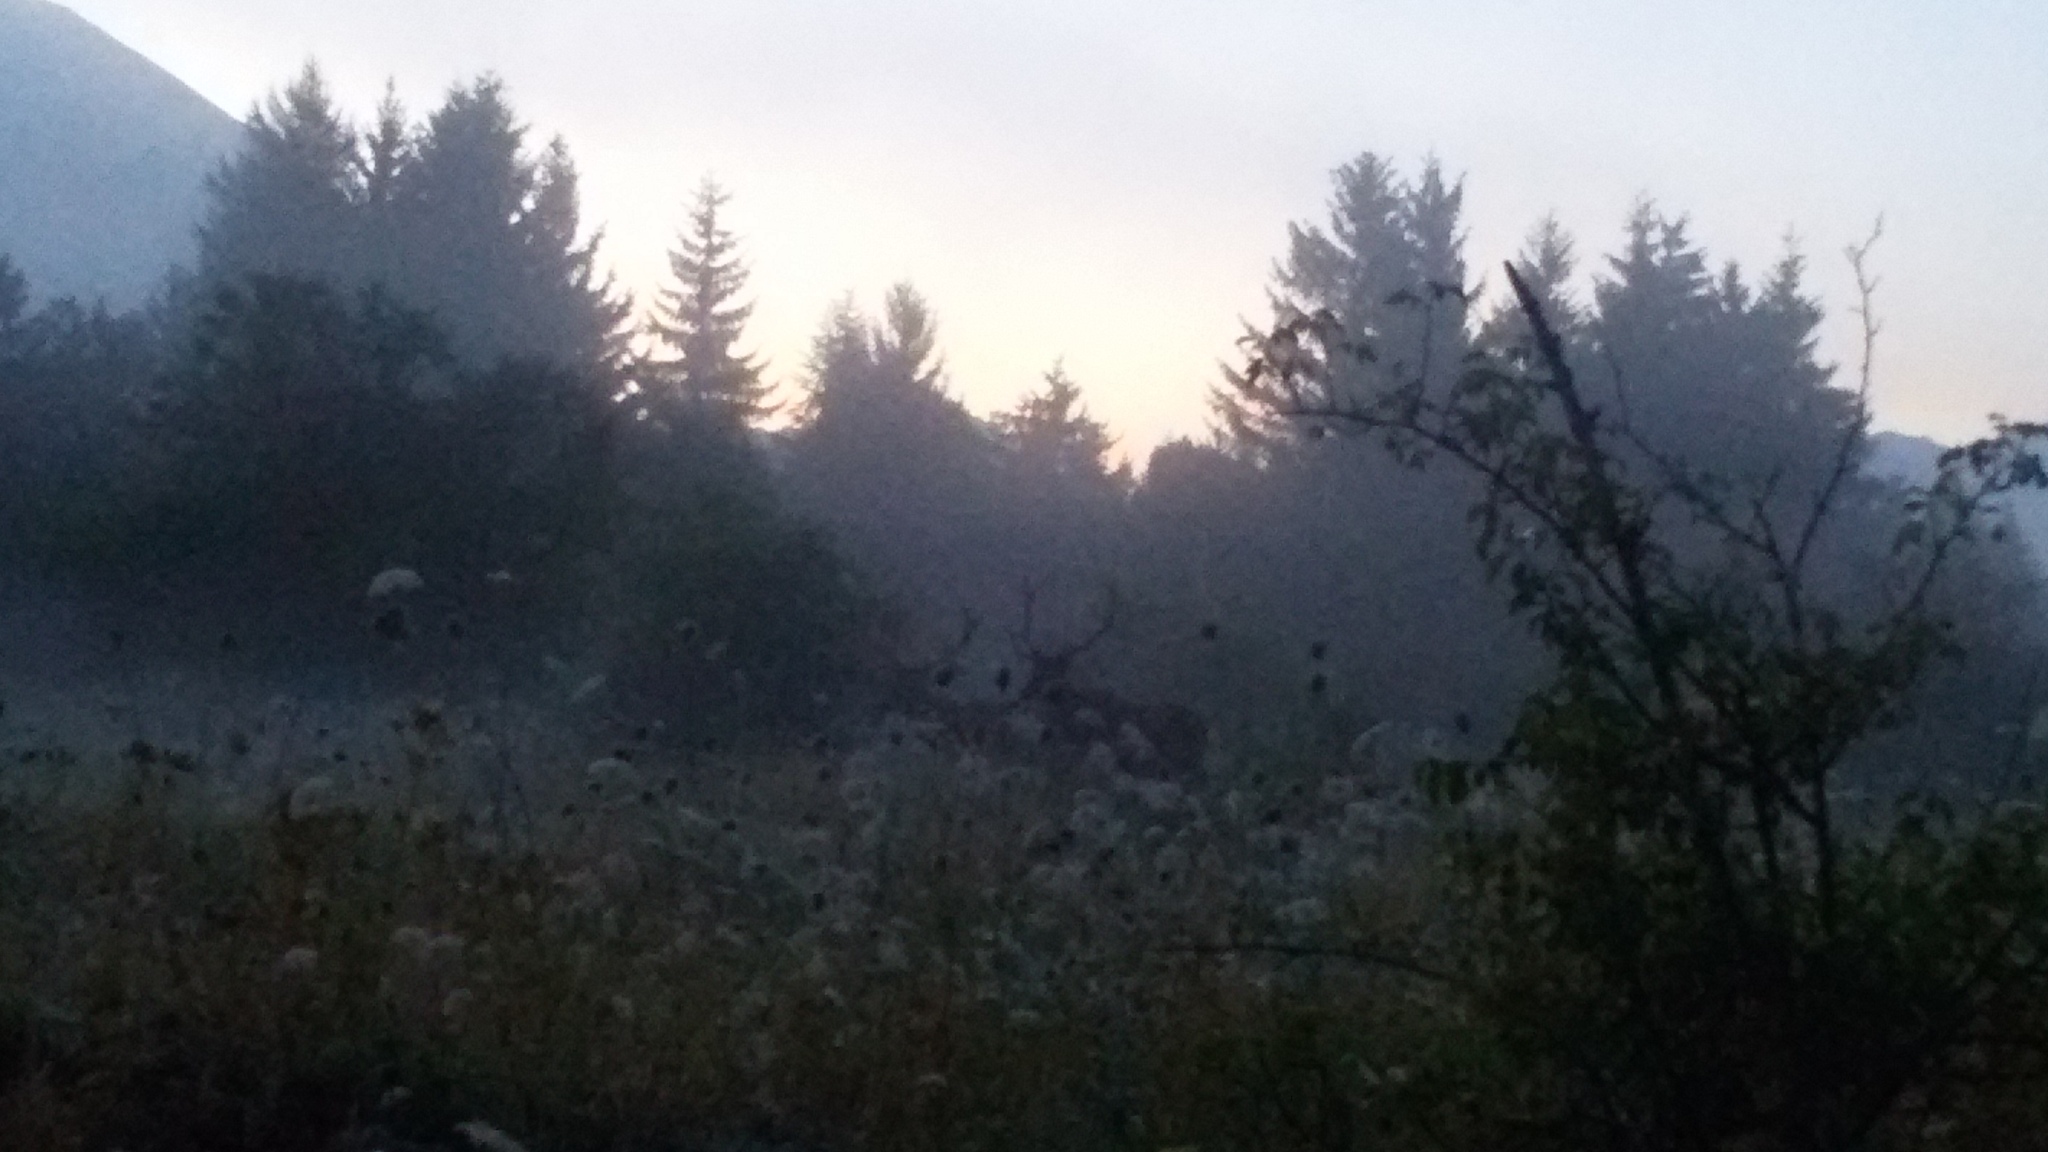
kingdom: Animalia
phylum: Chordata
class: Mammalia
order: Artiodactyla
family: Cervidae
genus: Cervus
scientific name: Cervus elaphus
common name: Red deer
